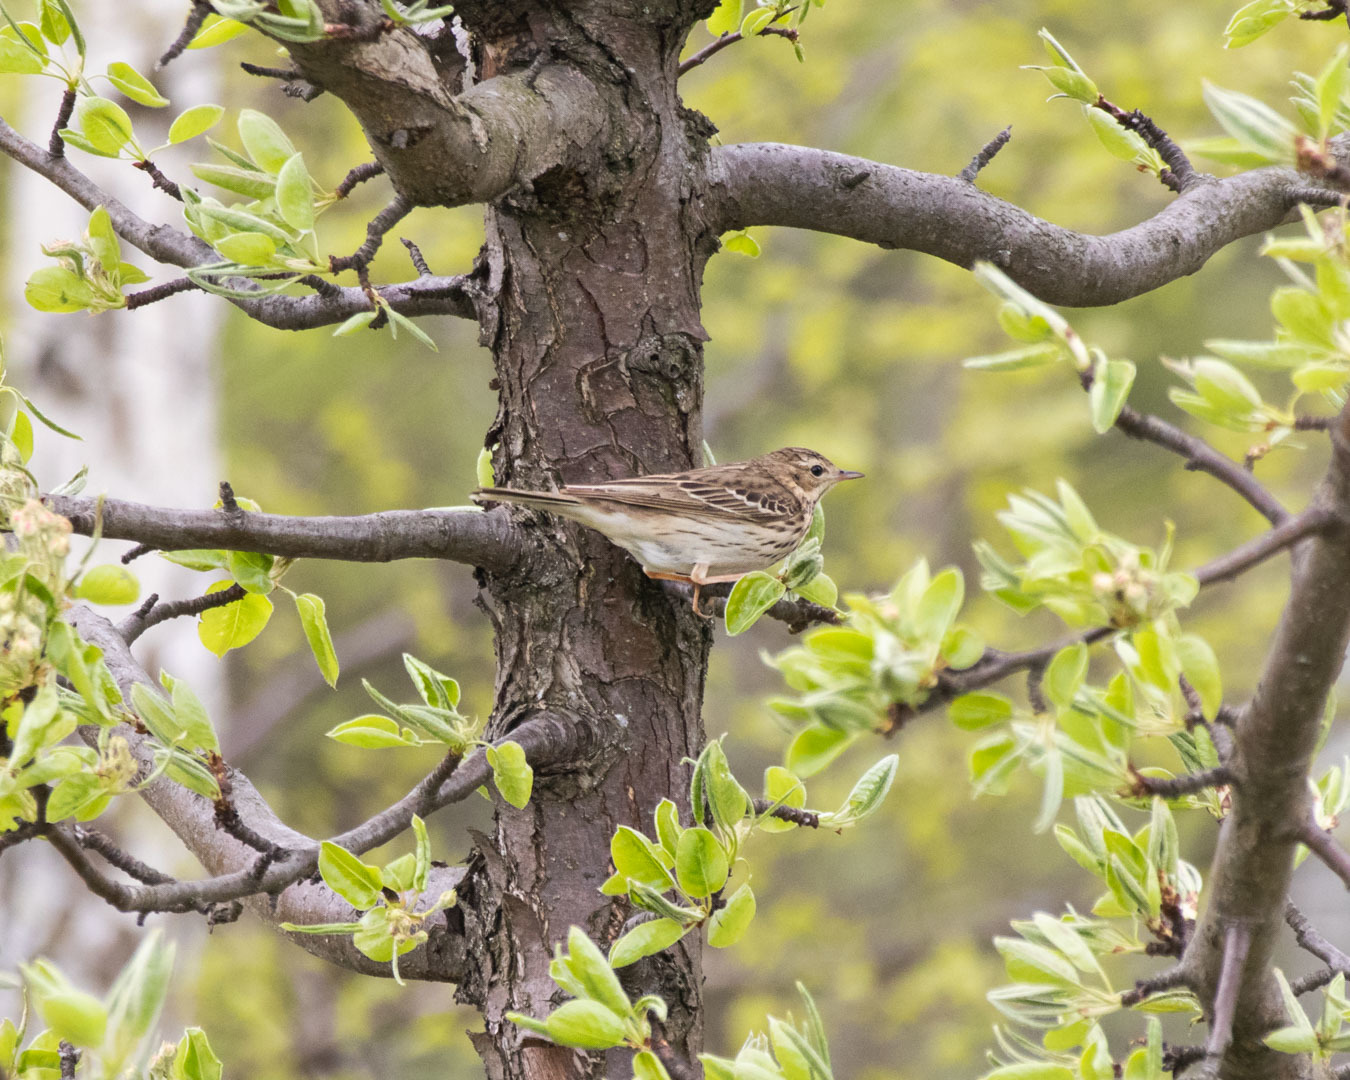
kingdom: Animalia
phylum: Chordata
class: Aves
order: Passeriformes
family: Motacillidae
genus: Anthus
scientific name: Anthus trivialis
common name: Tree pipit
